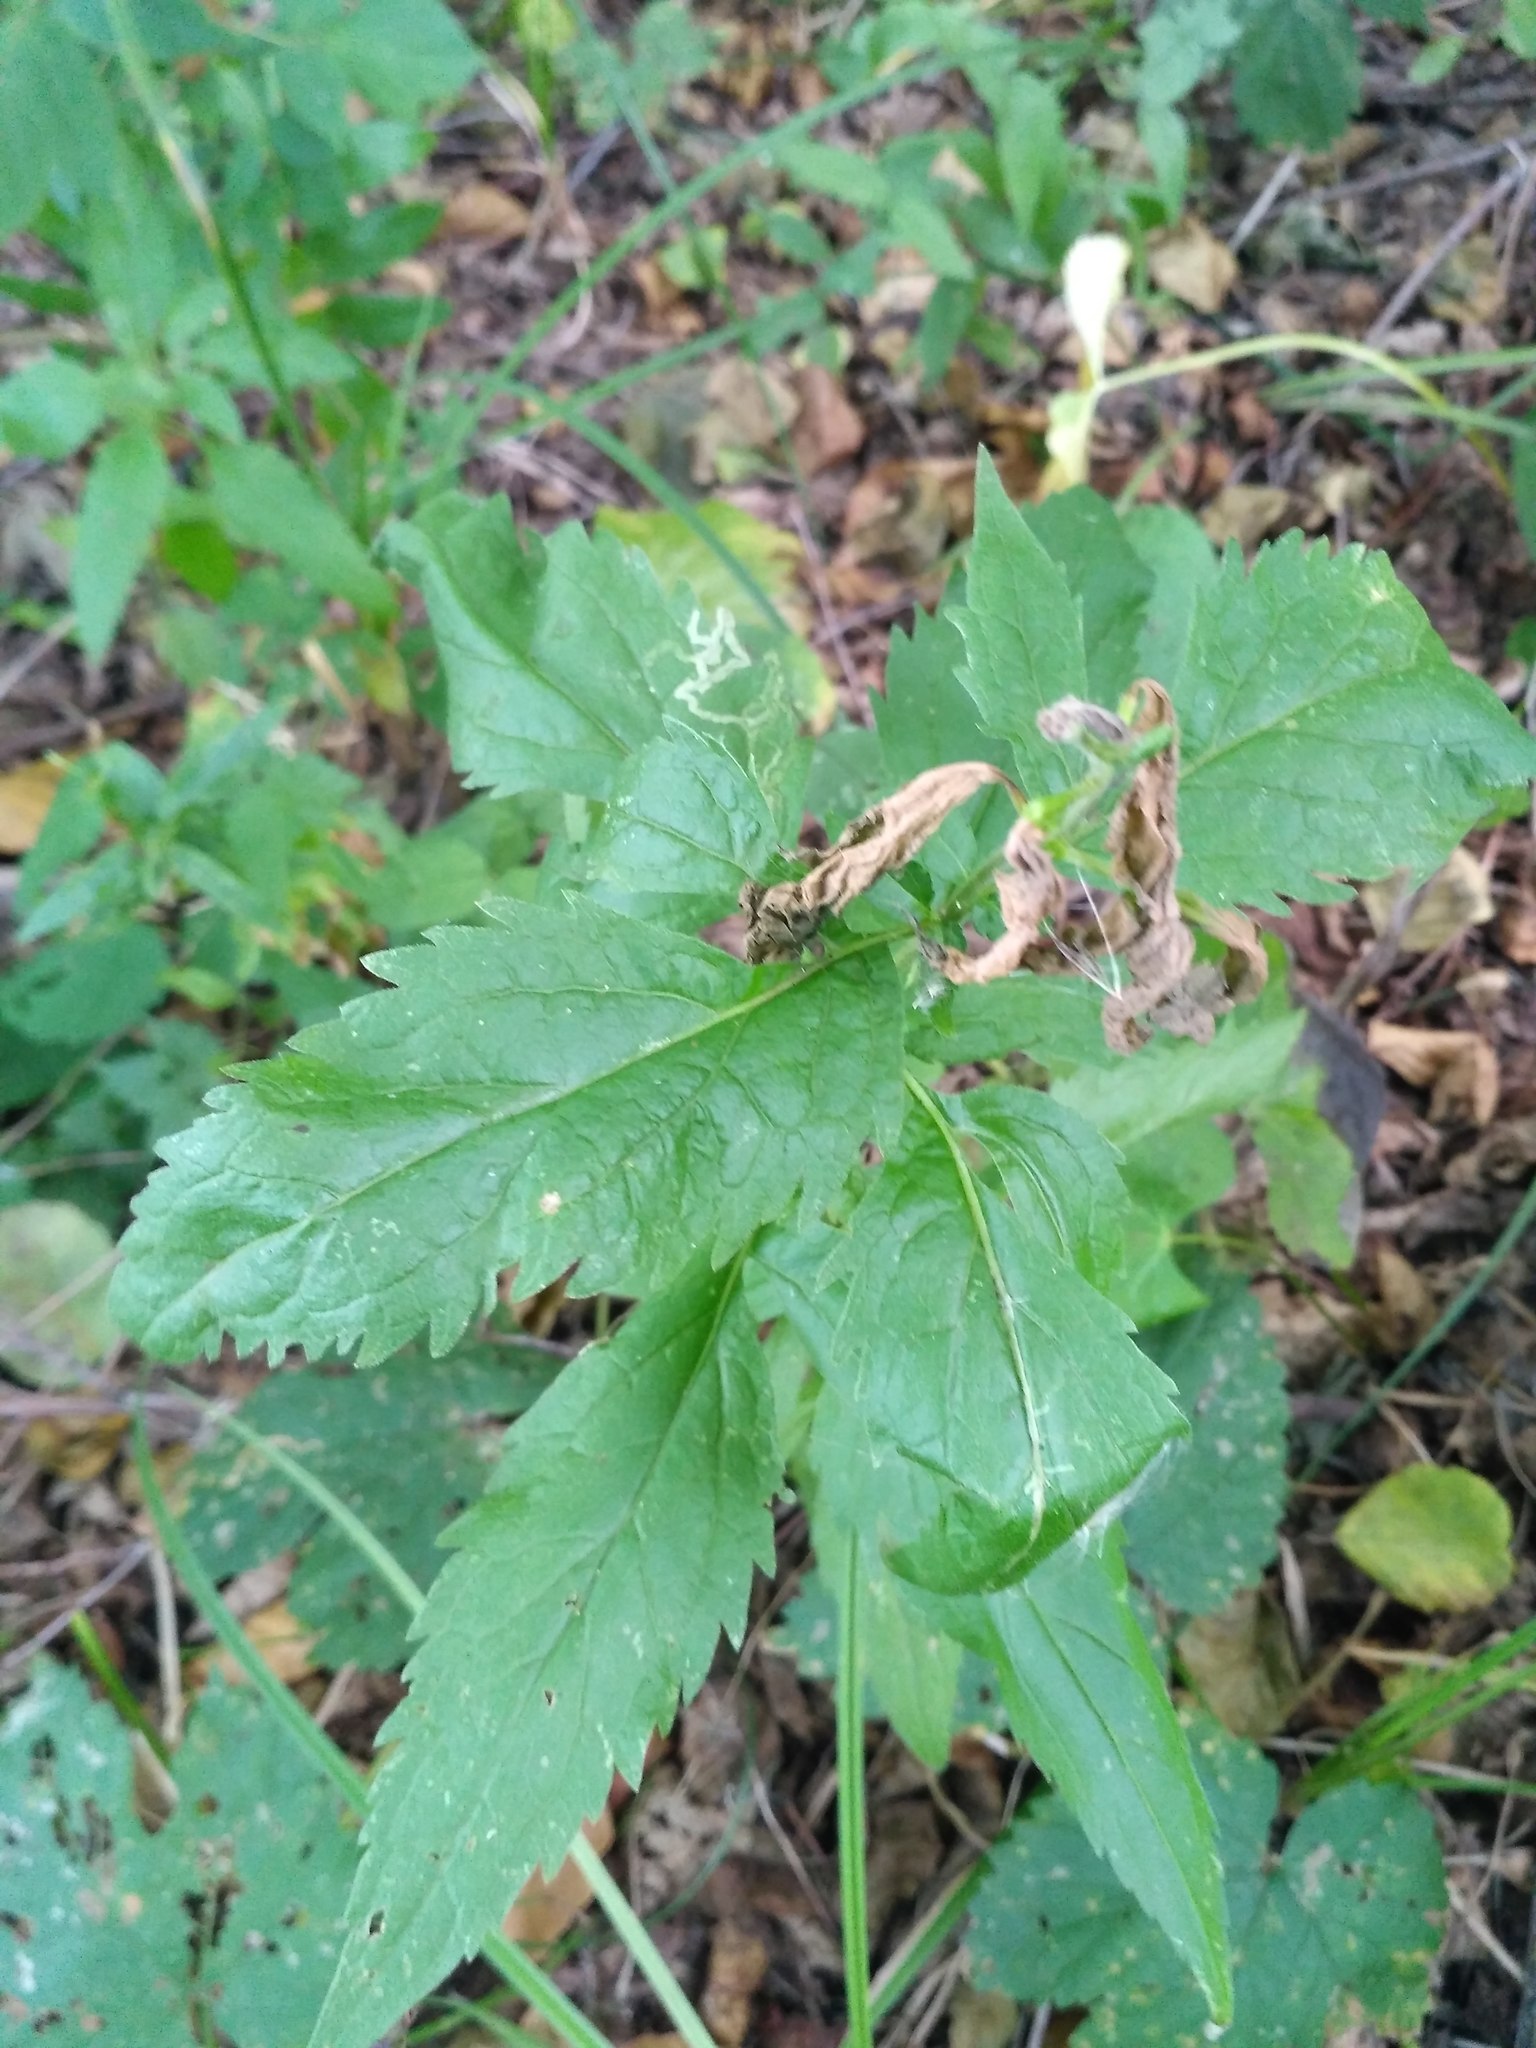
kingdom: Plantae
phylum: Tracheophyta
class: Magnoliopsida
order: Asterales
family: Campanulaceae
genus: Campanula
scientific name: Campanula trachelium
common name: Nettle-leaved bellflower
